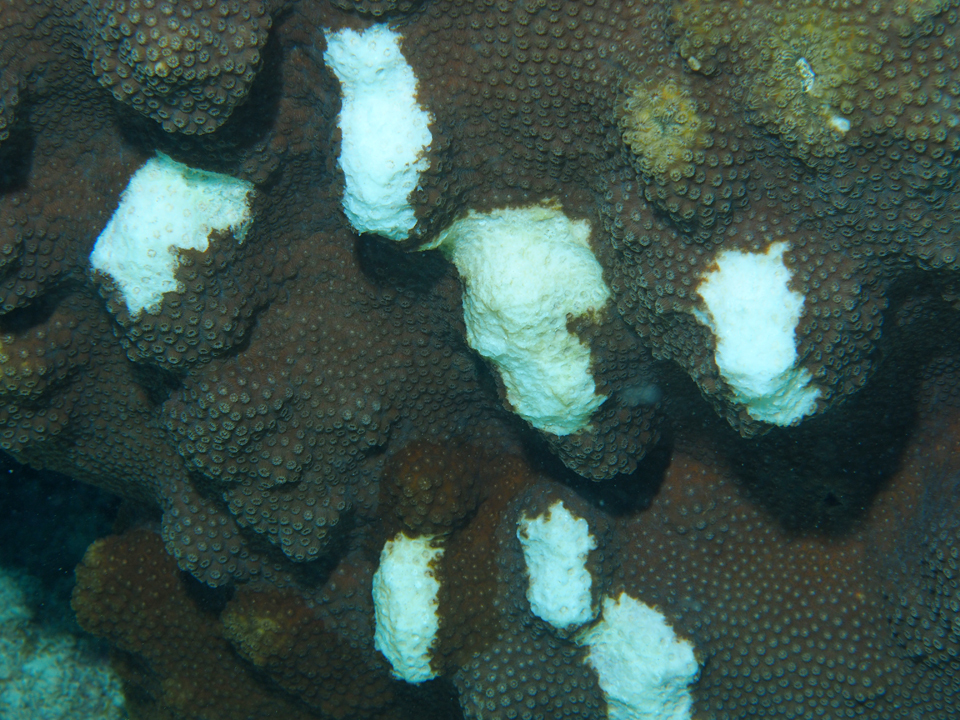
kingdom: Animalia
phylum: Cnidaria
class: Anthozoa
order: Scleractinia
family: Merulinidae
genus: Orbicella
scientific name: Orbicella faveolata
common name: Mountainous star coral
